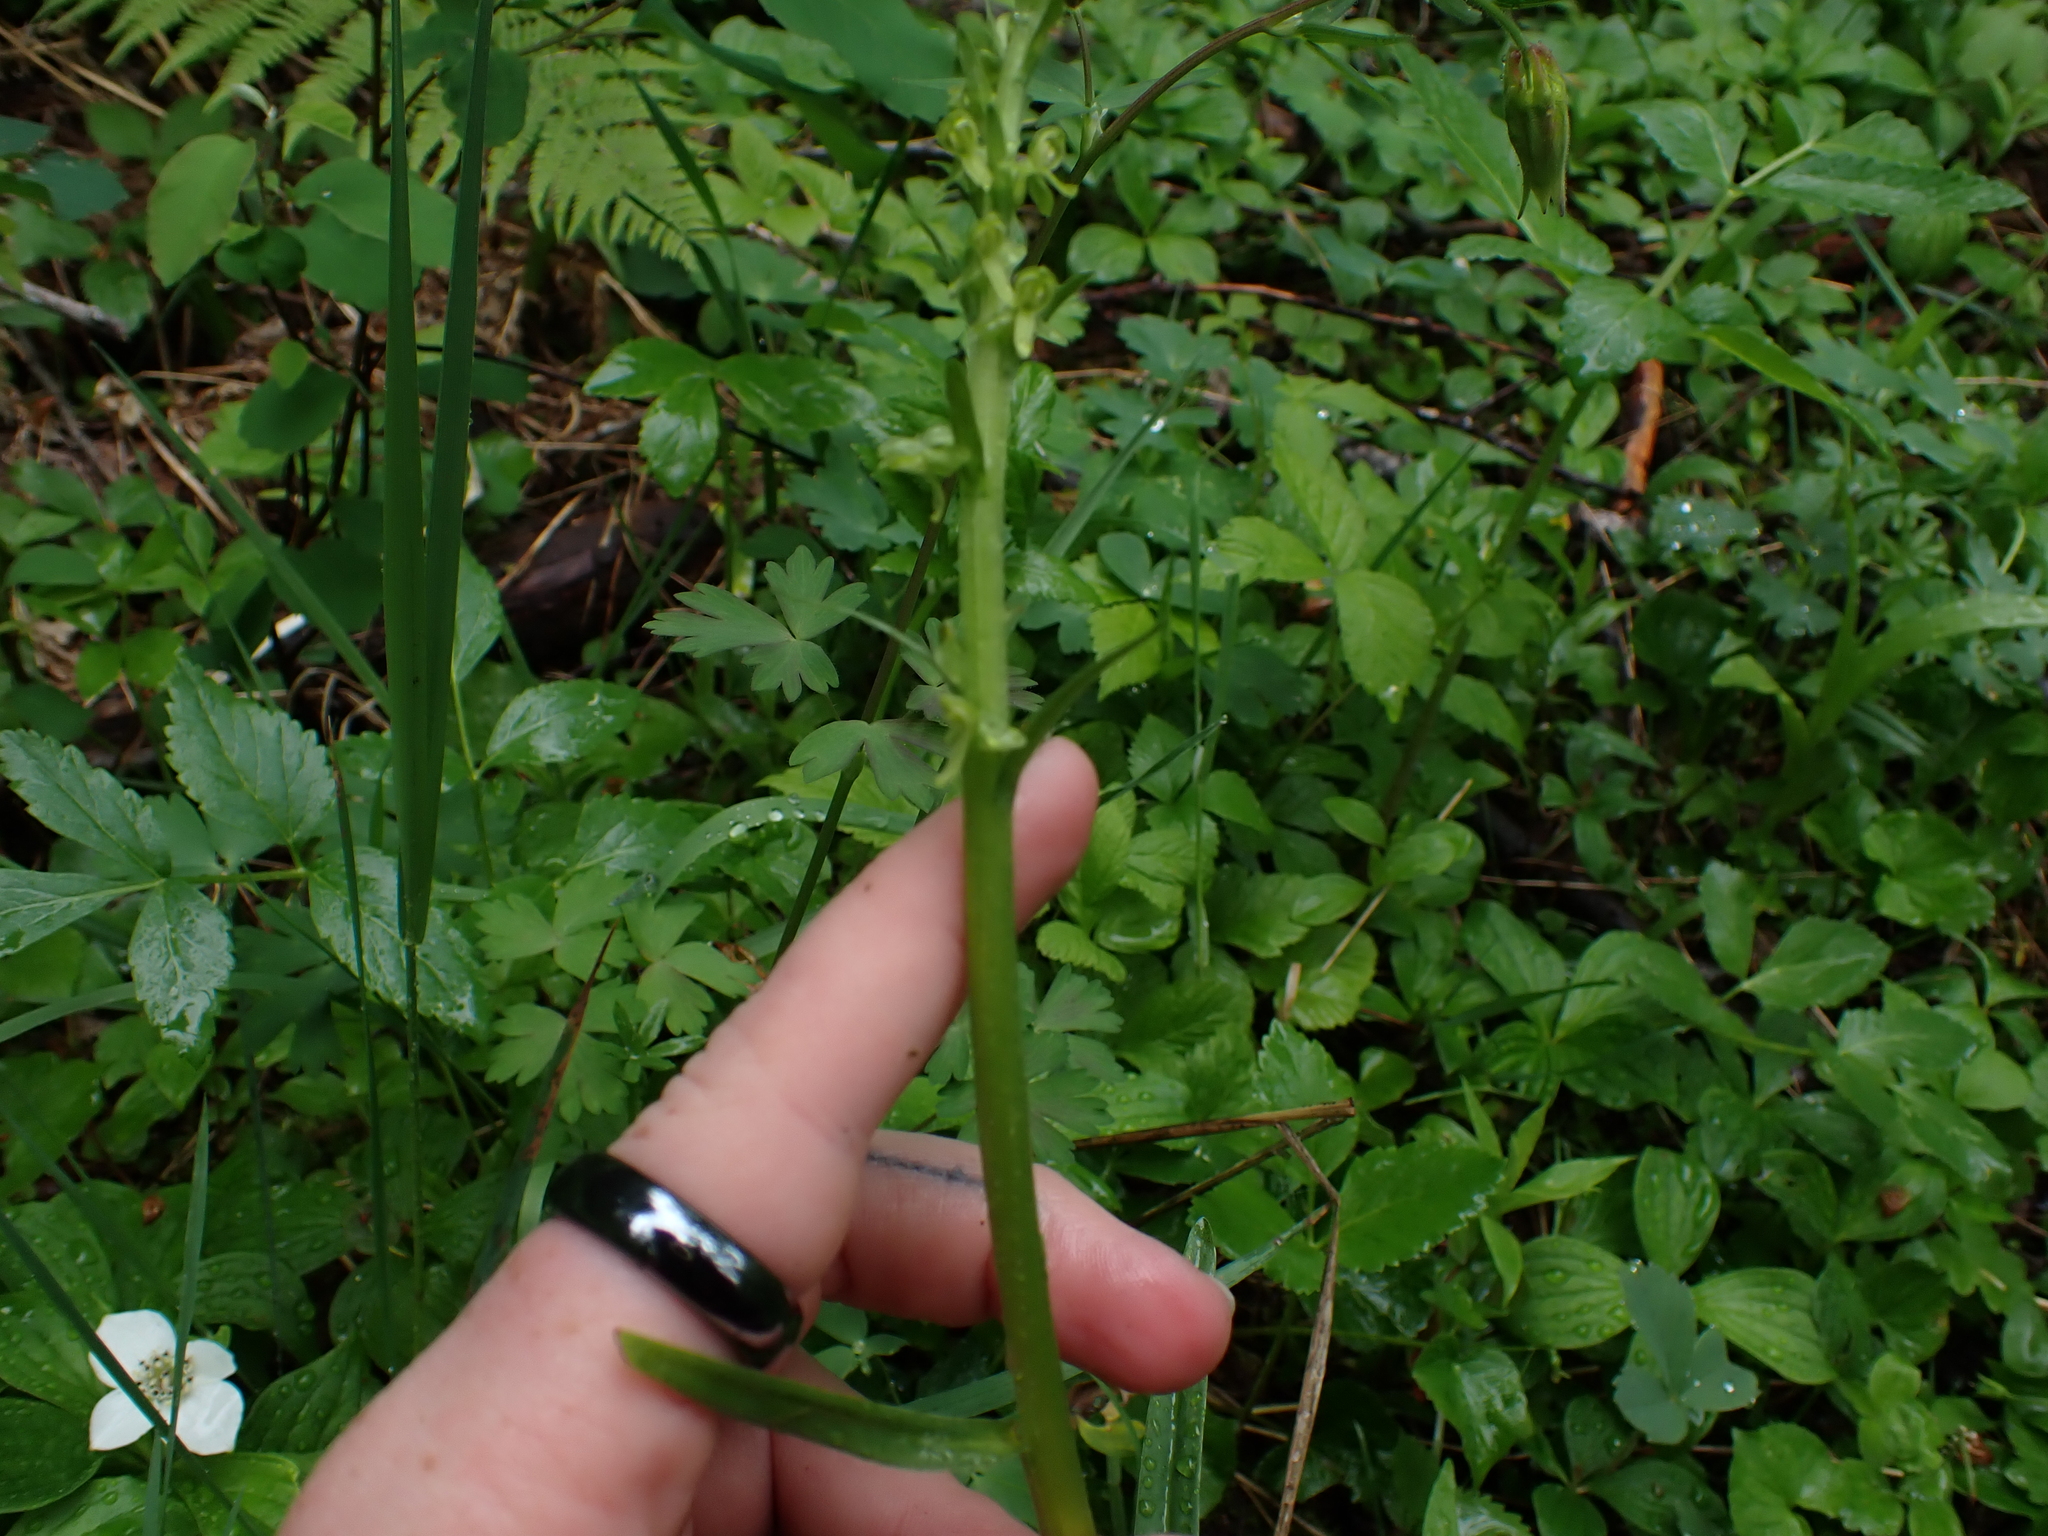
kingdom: Plantae
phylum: Tracheophyta
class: Liliopsida
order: Asparagales
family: Orchidaceae
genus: Platanthera
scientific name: Platanthera stricta
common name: Slender bog orchid
